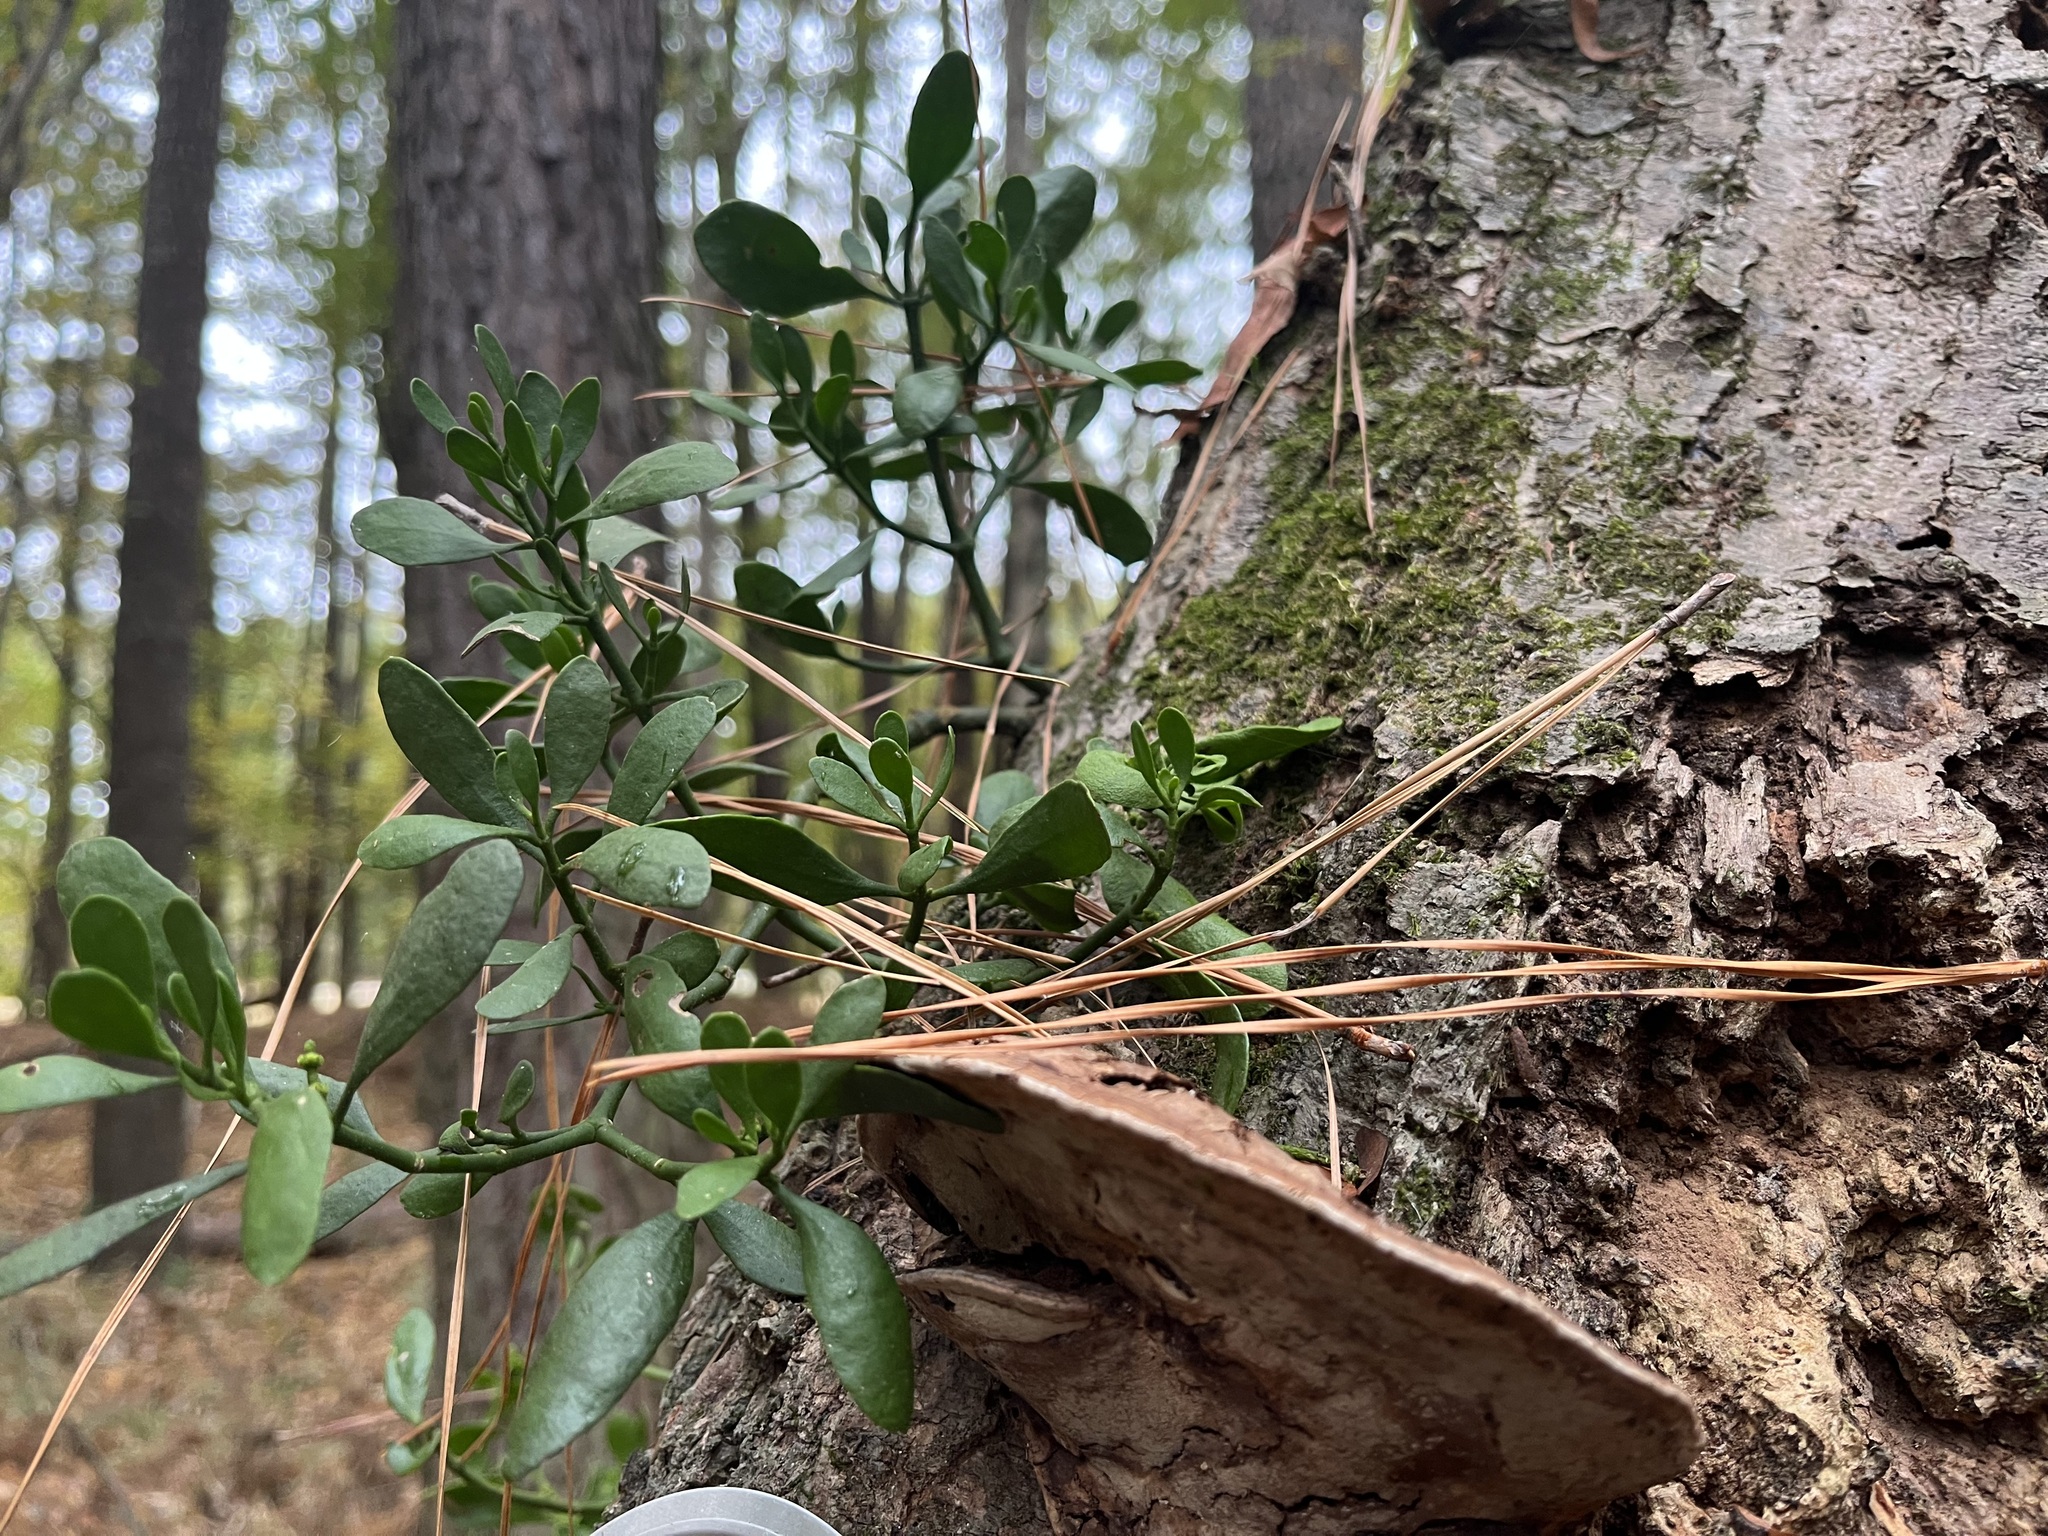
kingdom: Plantae
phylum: Tracheophyta
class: Magnoliopsida
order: Santalales
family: Viscaceae
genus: Phoradendron
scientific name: Phoradendron leucarpum
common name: Pacific mistletoe
